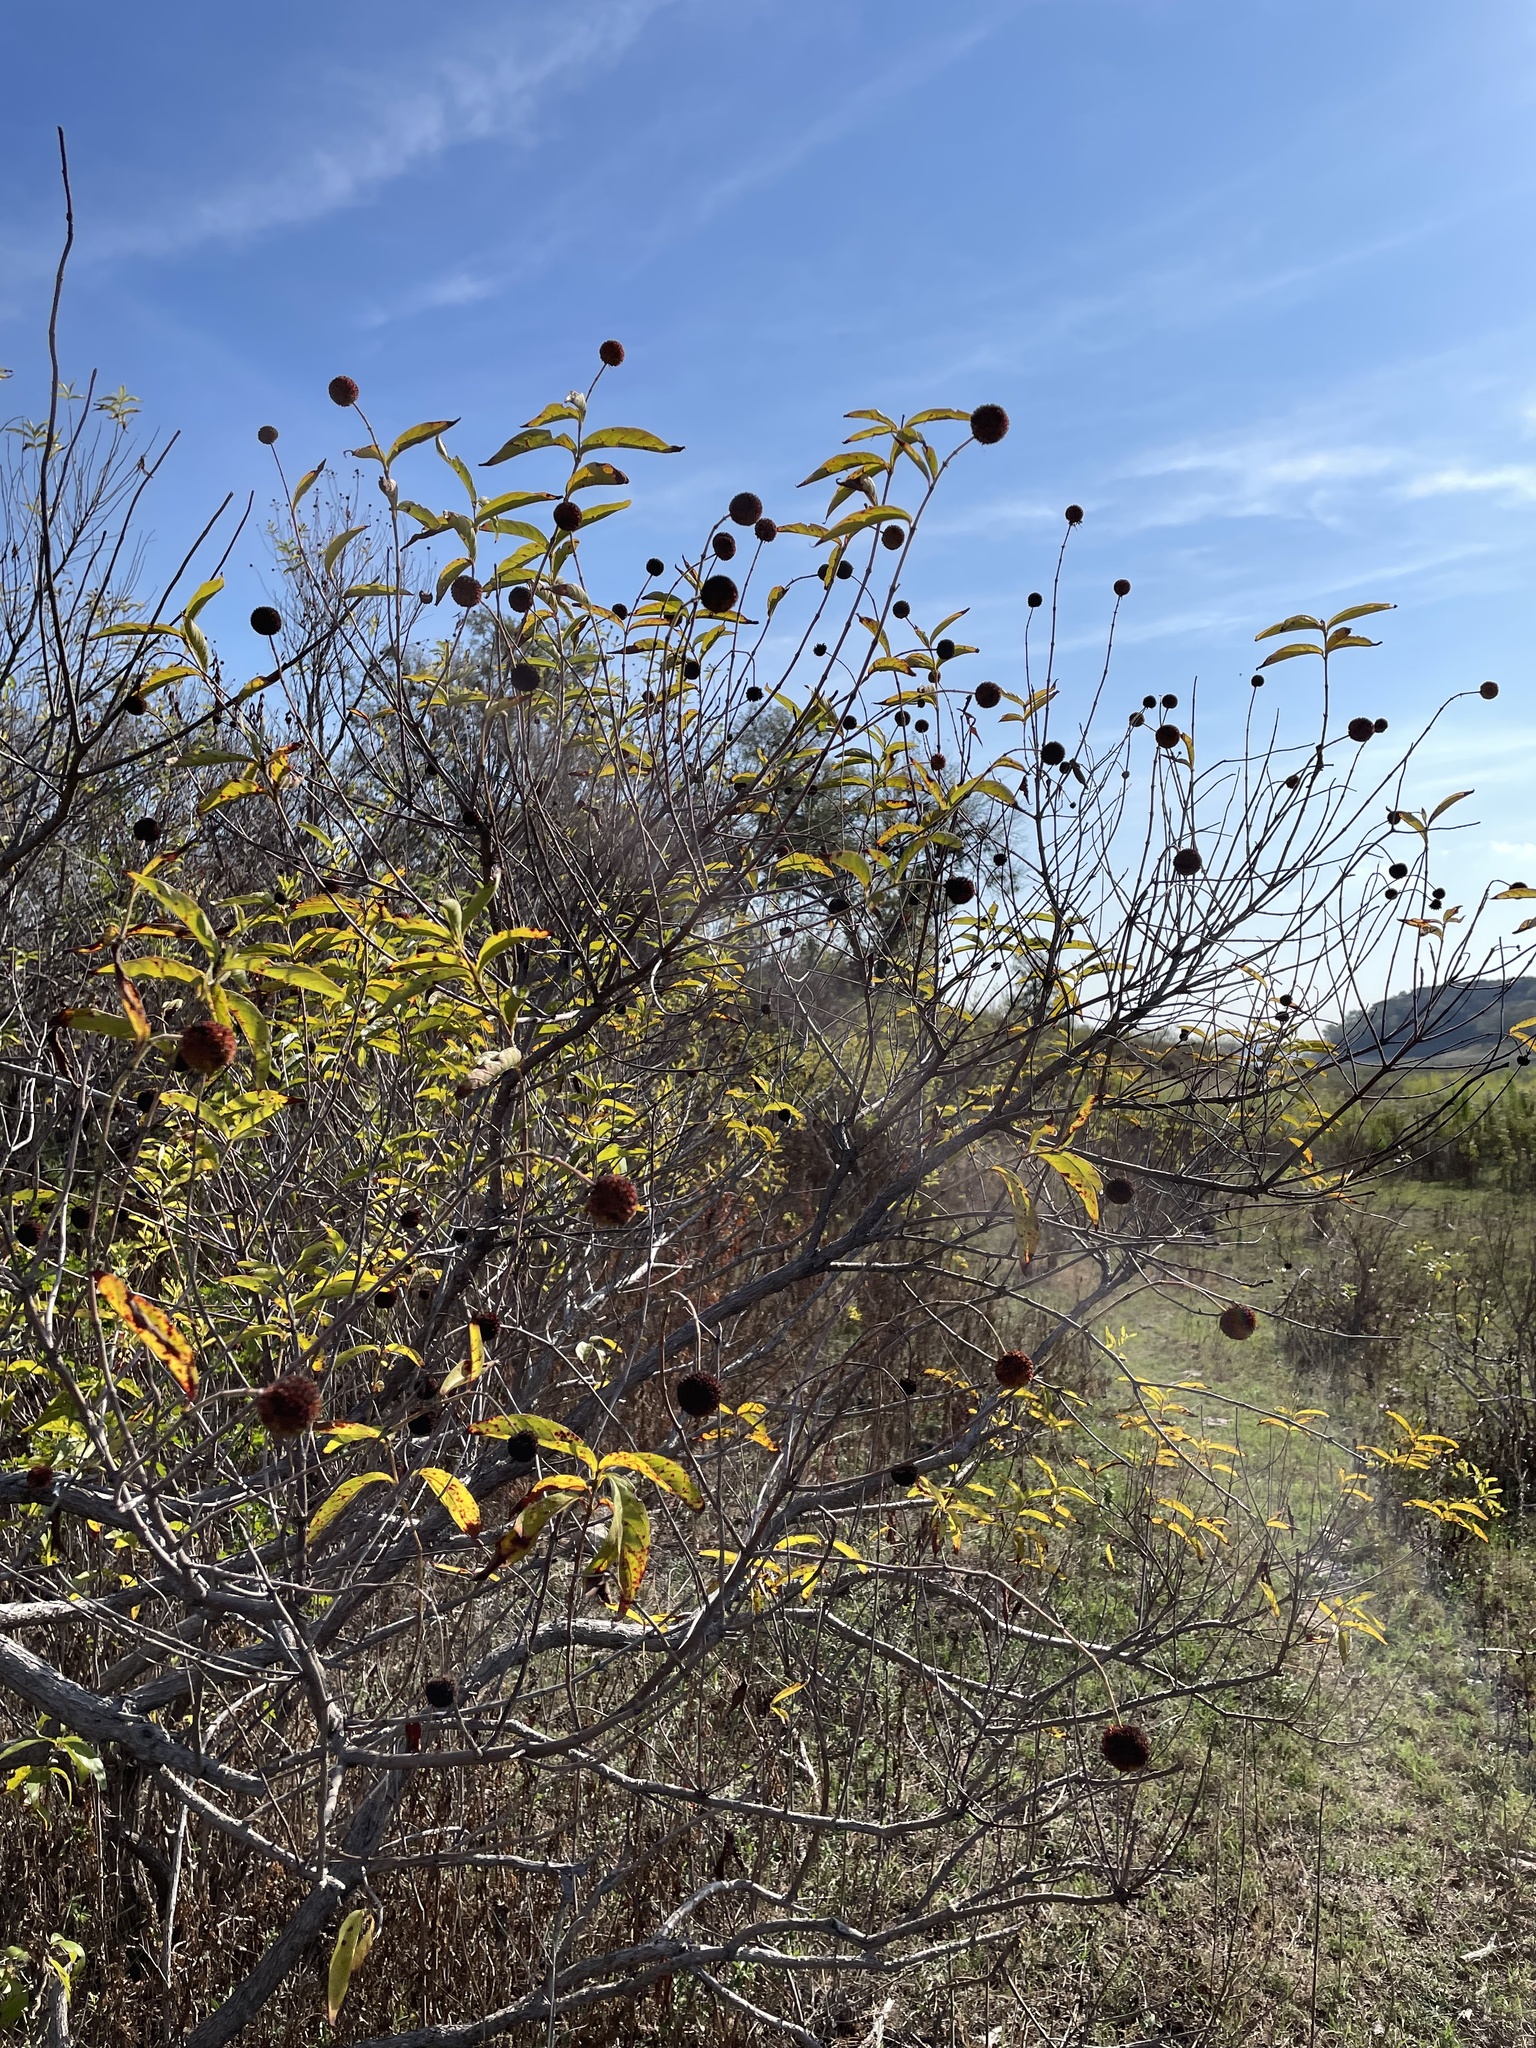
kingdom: Plantae
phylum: Tracheophyta
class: Magnoliopsida
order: Gentianales
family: Rubiaceae
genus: Cephalanthus
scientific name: Cephalanthus occidentalis
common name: Button-willow
